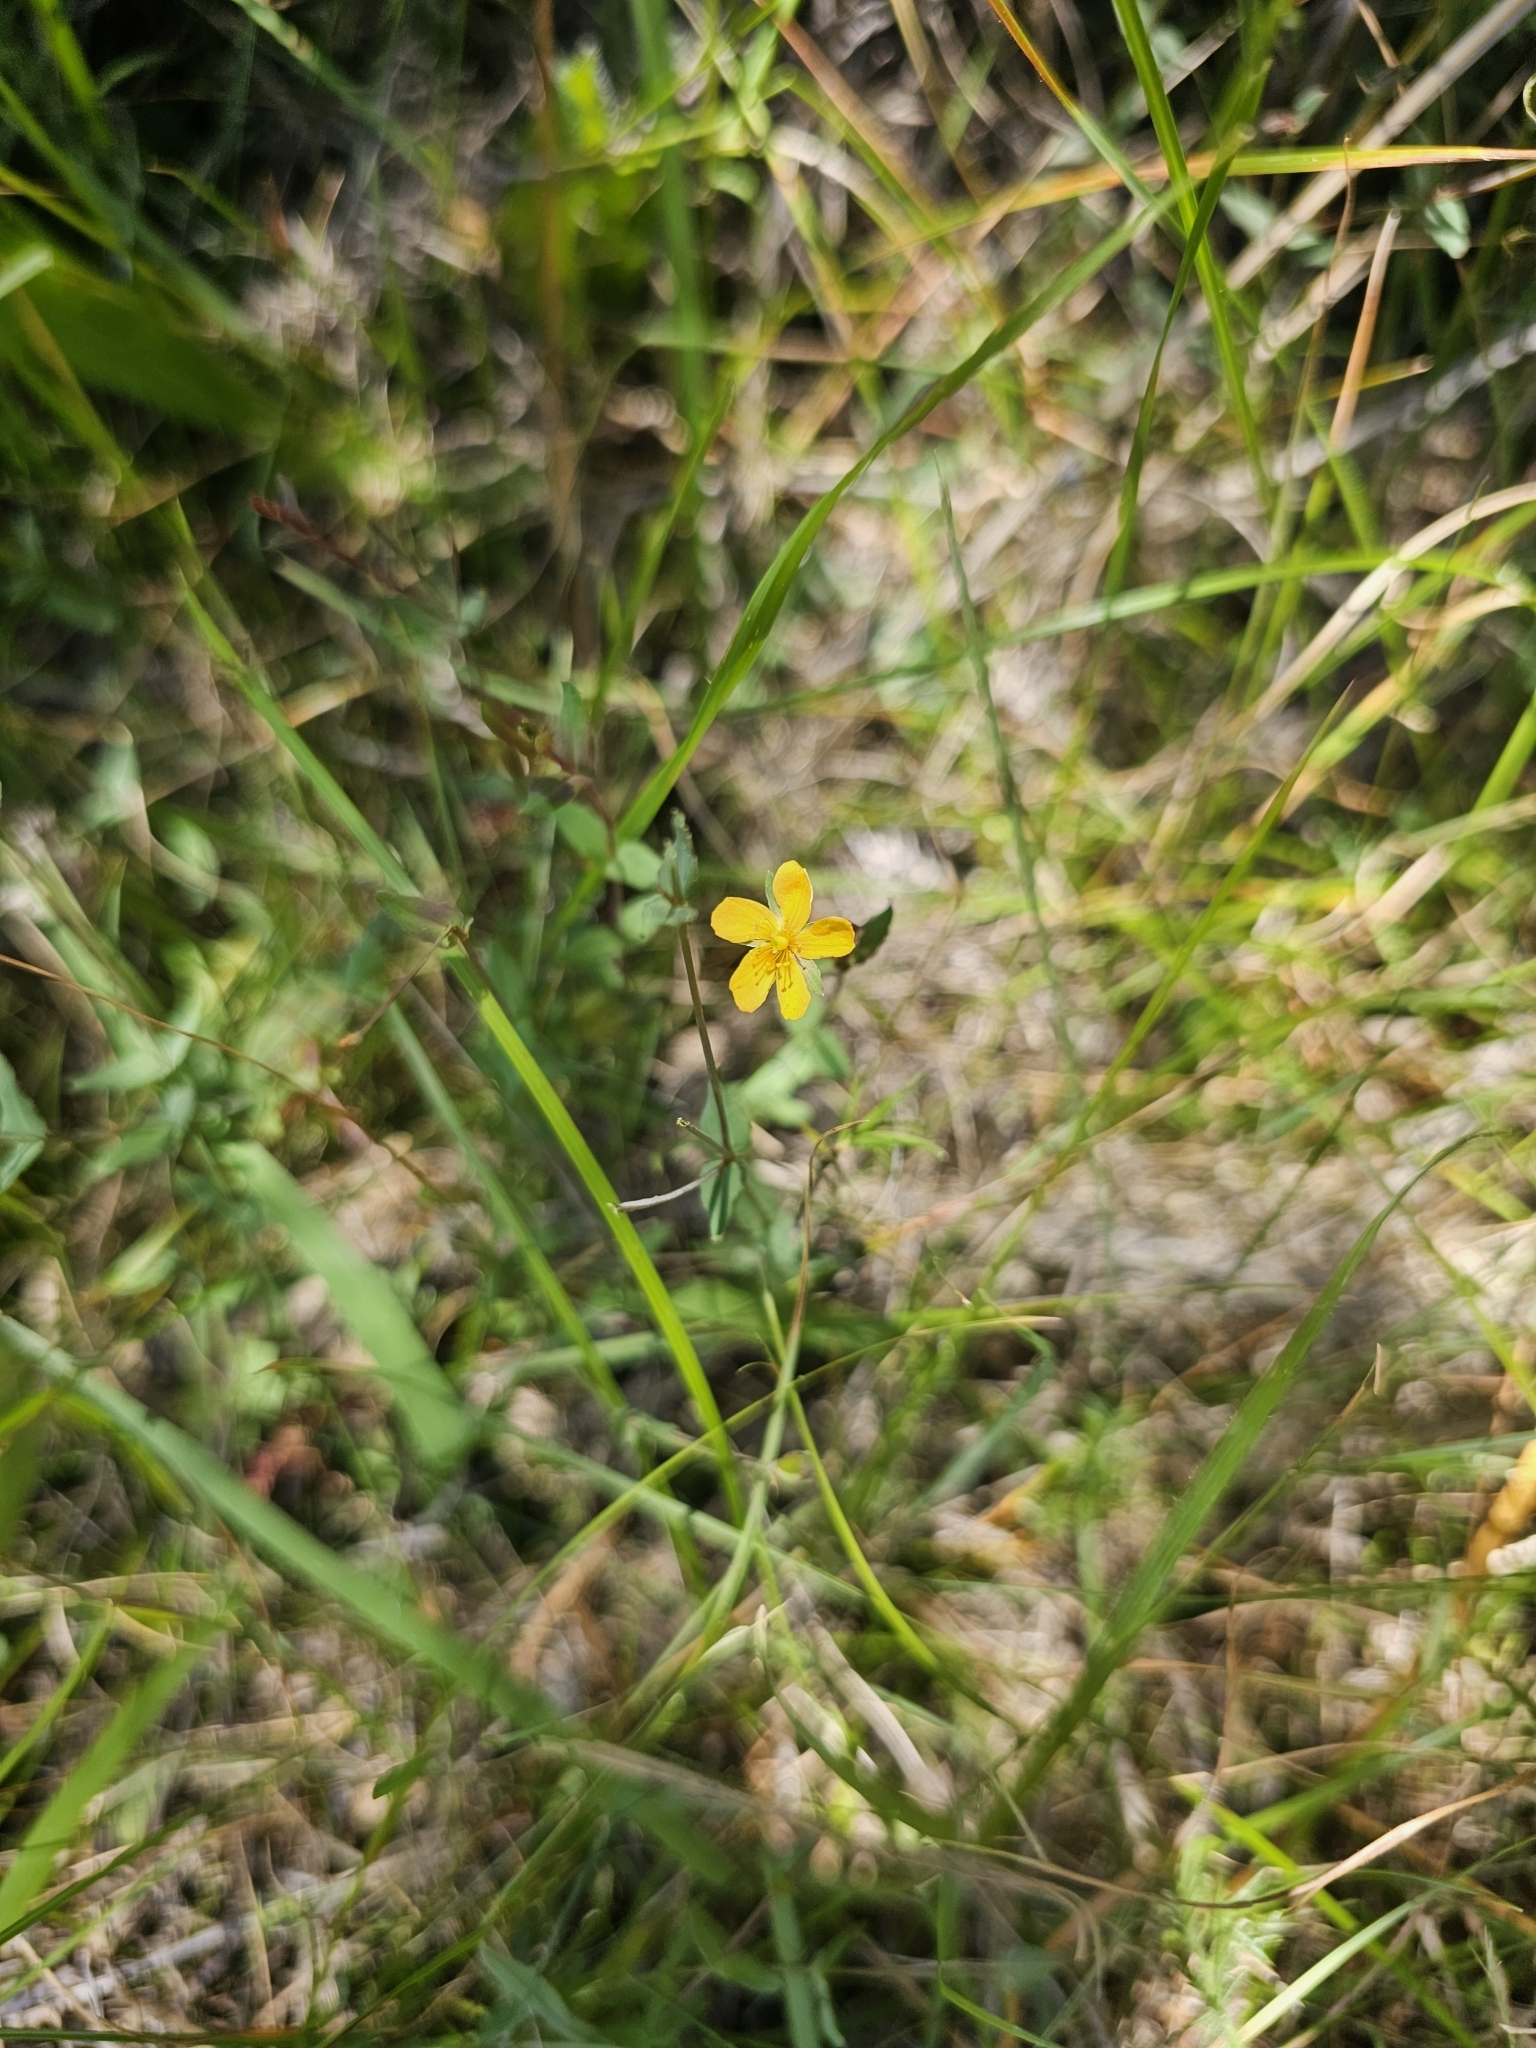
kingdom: Plantae
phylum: Tracheophyta
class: Magnoliopsida
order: Malpighiales
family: Hypericaceae
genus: Hypericum
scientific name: Hypericum japonicum
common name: Matted st. john's-wort
